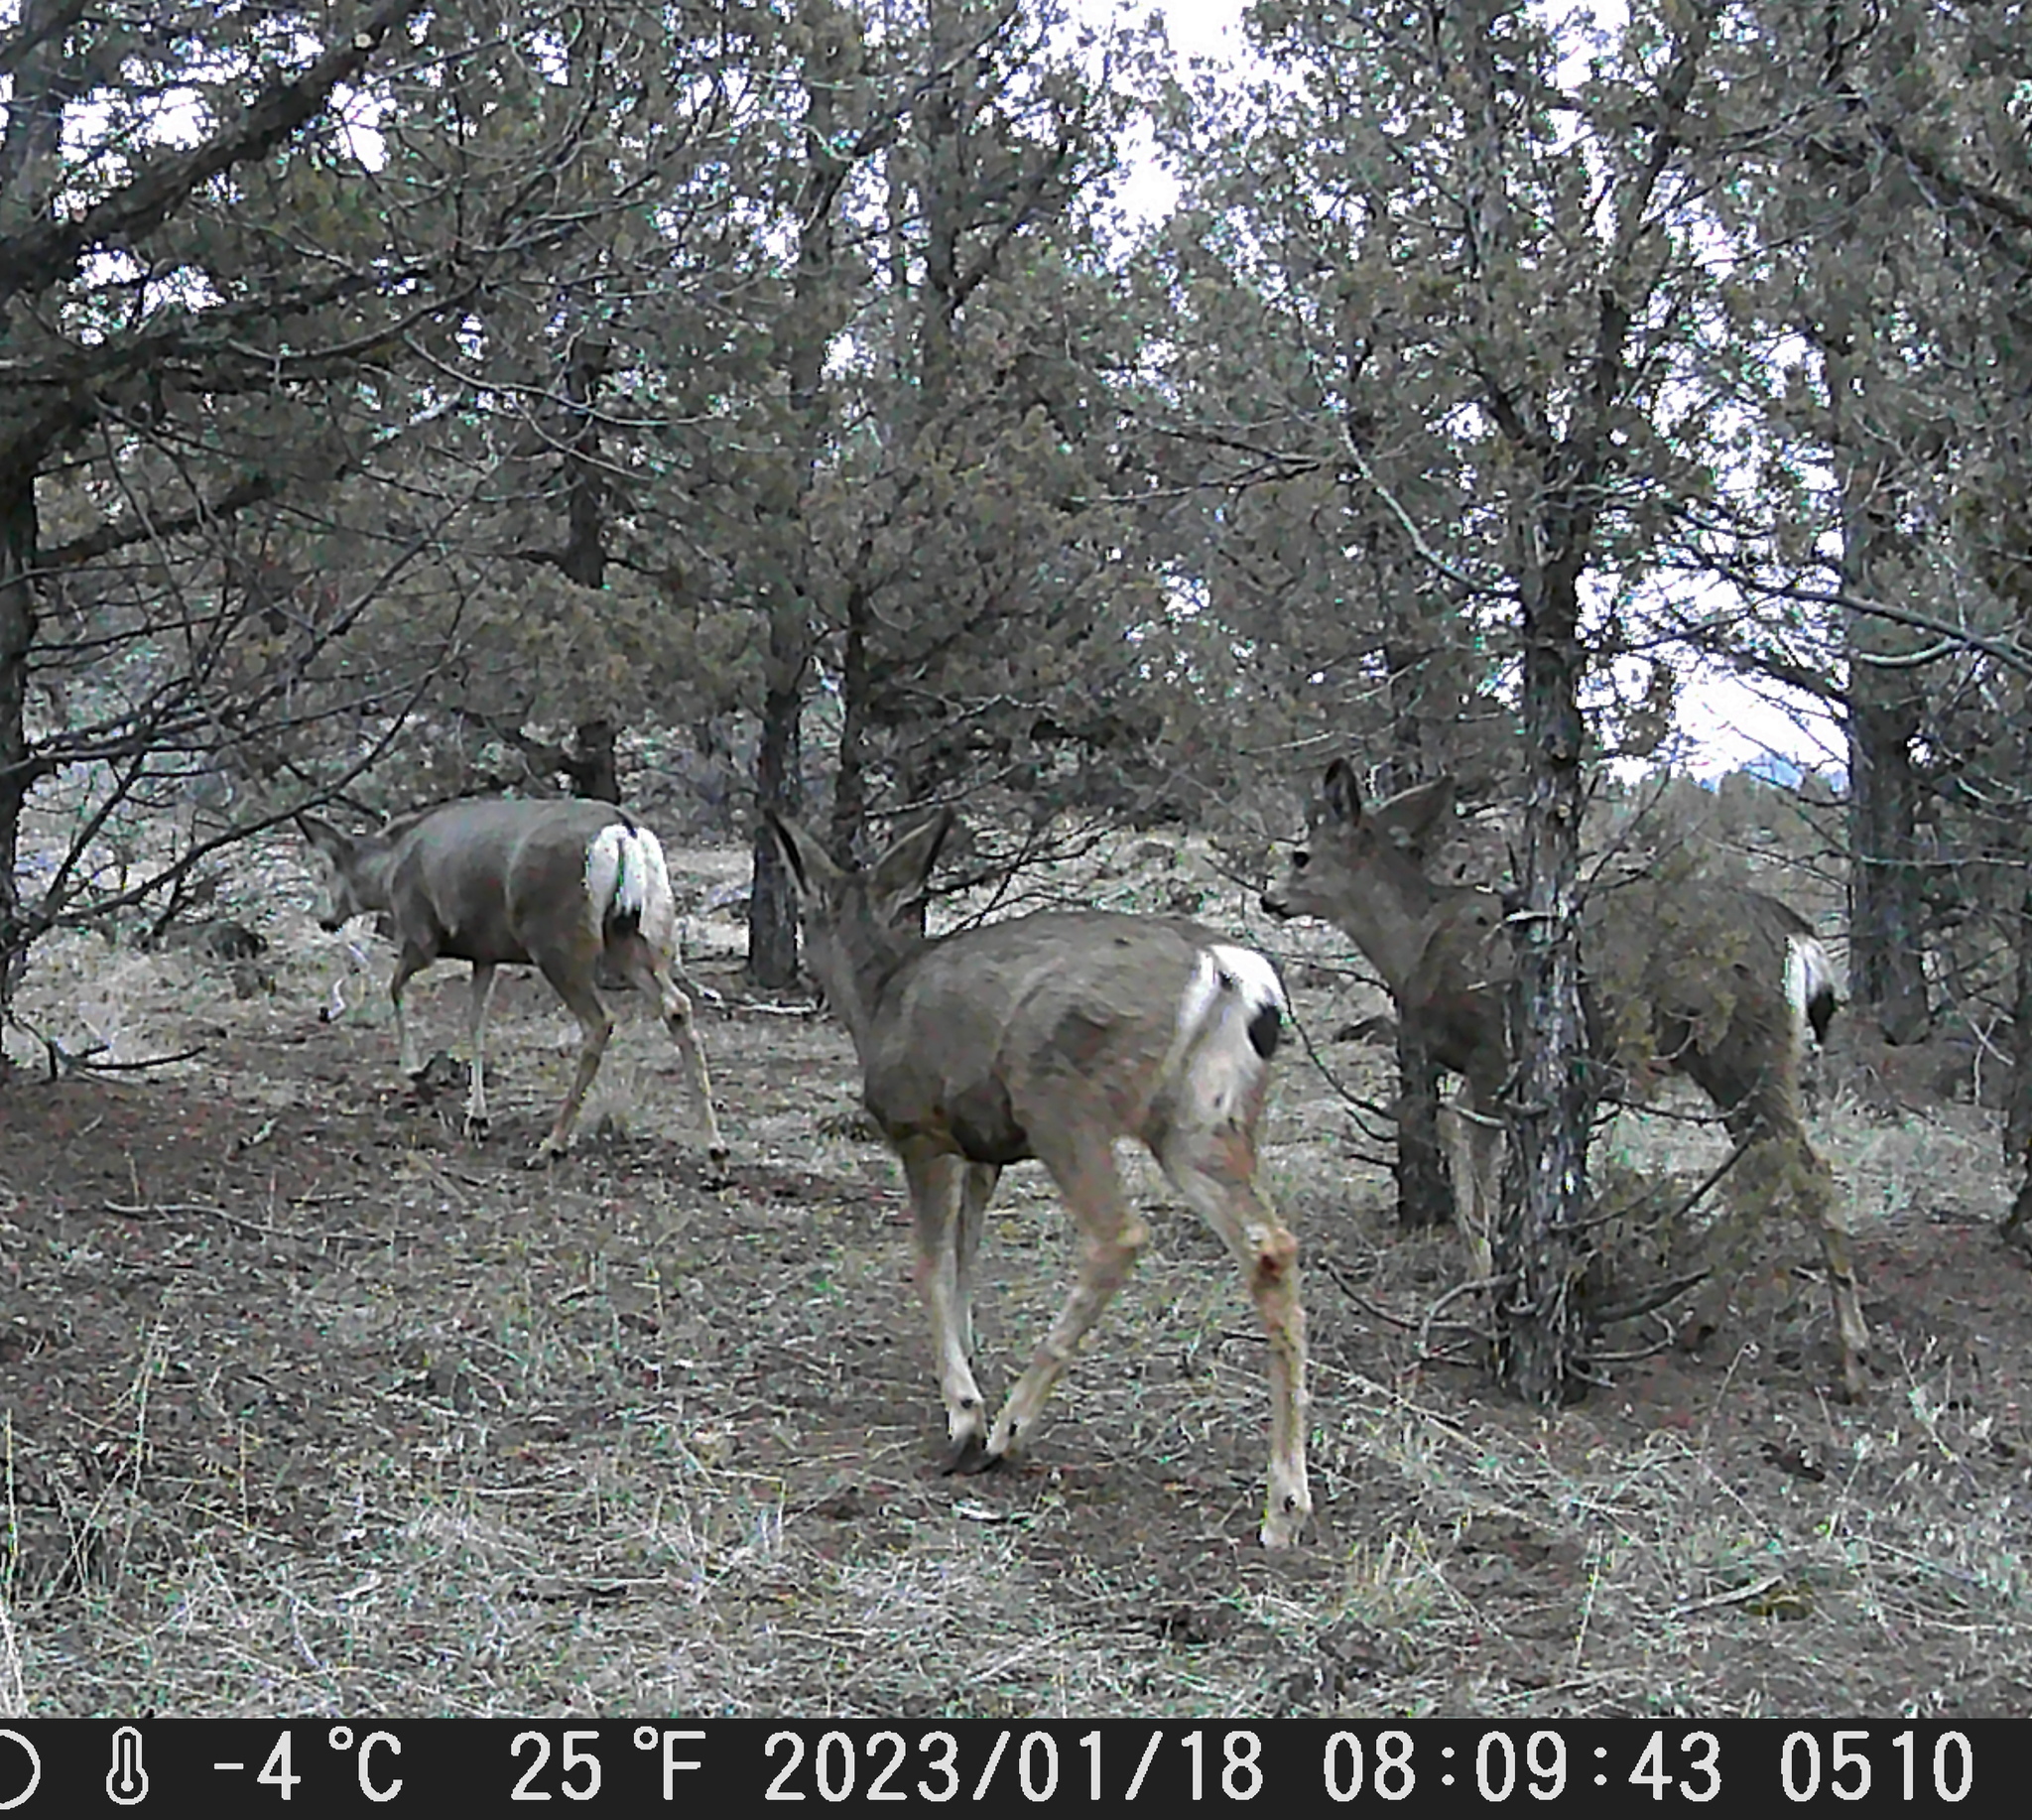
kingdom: Animalia
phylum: Chordata
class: Mammalia
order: Artiodactyla
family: Cervidae
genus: Odocoileus
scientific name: Odocoileus hemionus
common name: Mule deer
